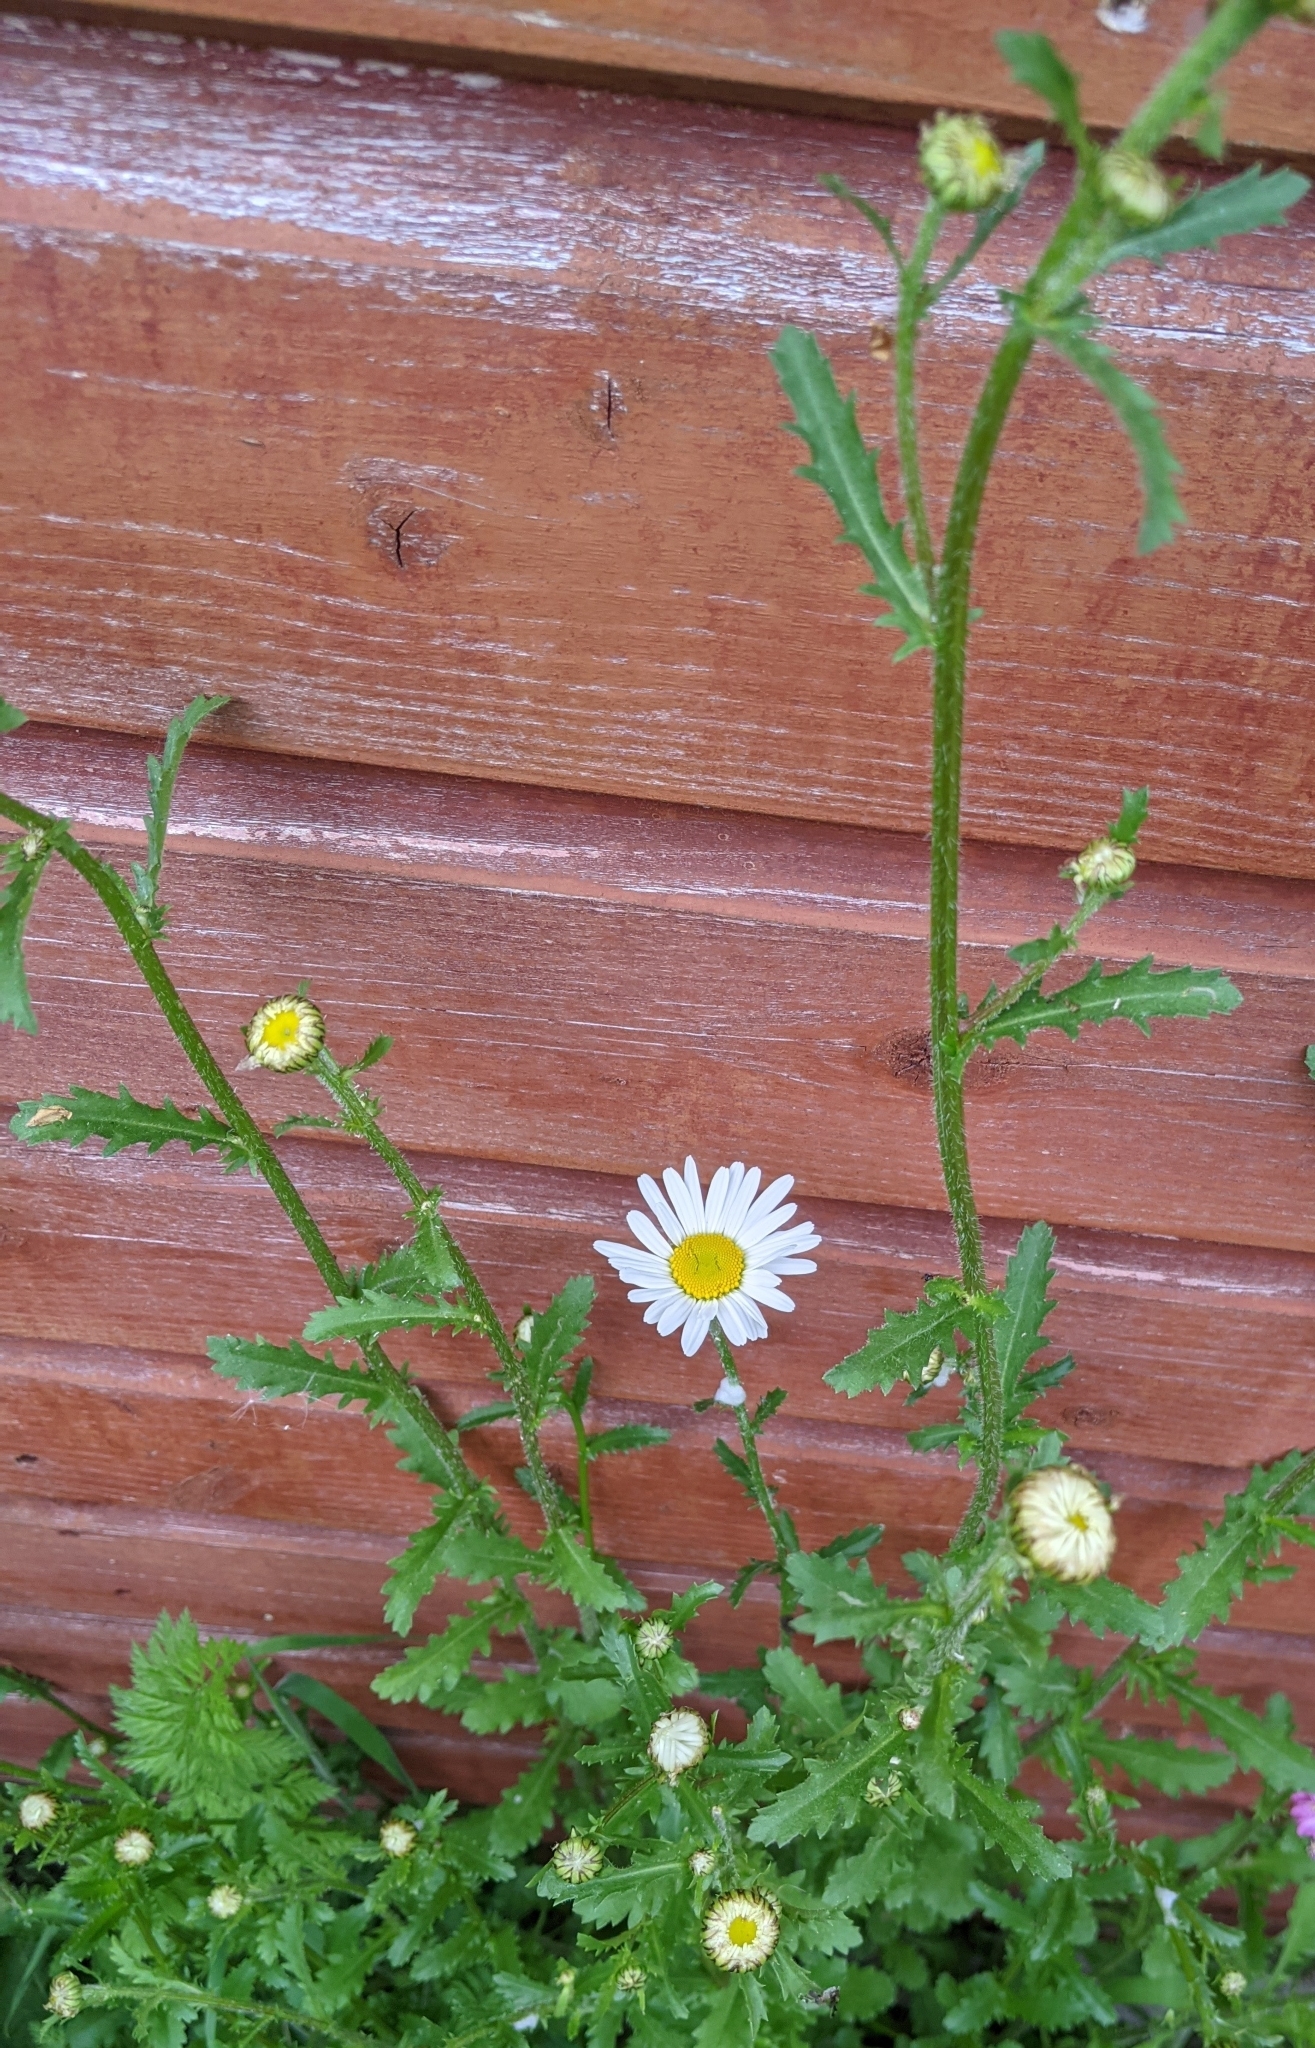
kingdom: Plantae
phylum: Tracheophyta
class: Magnoliopsida
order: Asterales
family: Asteraceae
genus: Leucanthemum
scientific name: Leucanthemum vulgare
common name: Oxeye daisy
